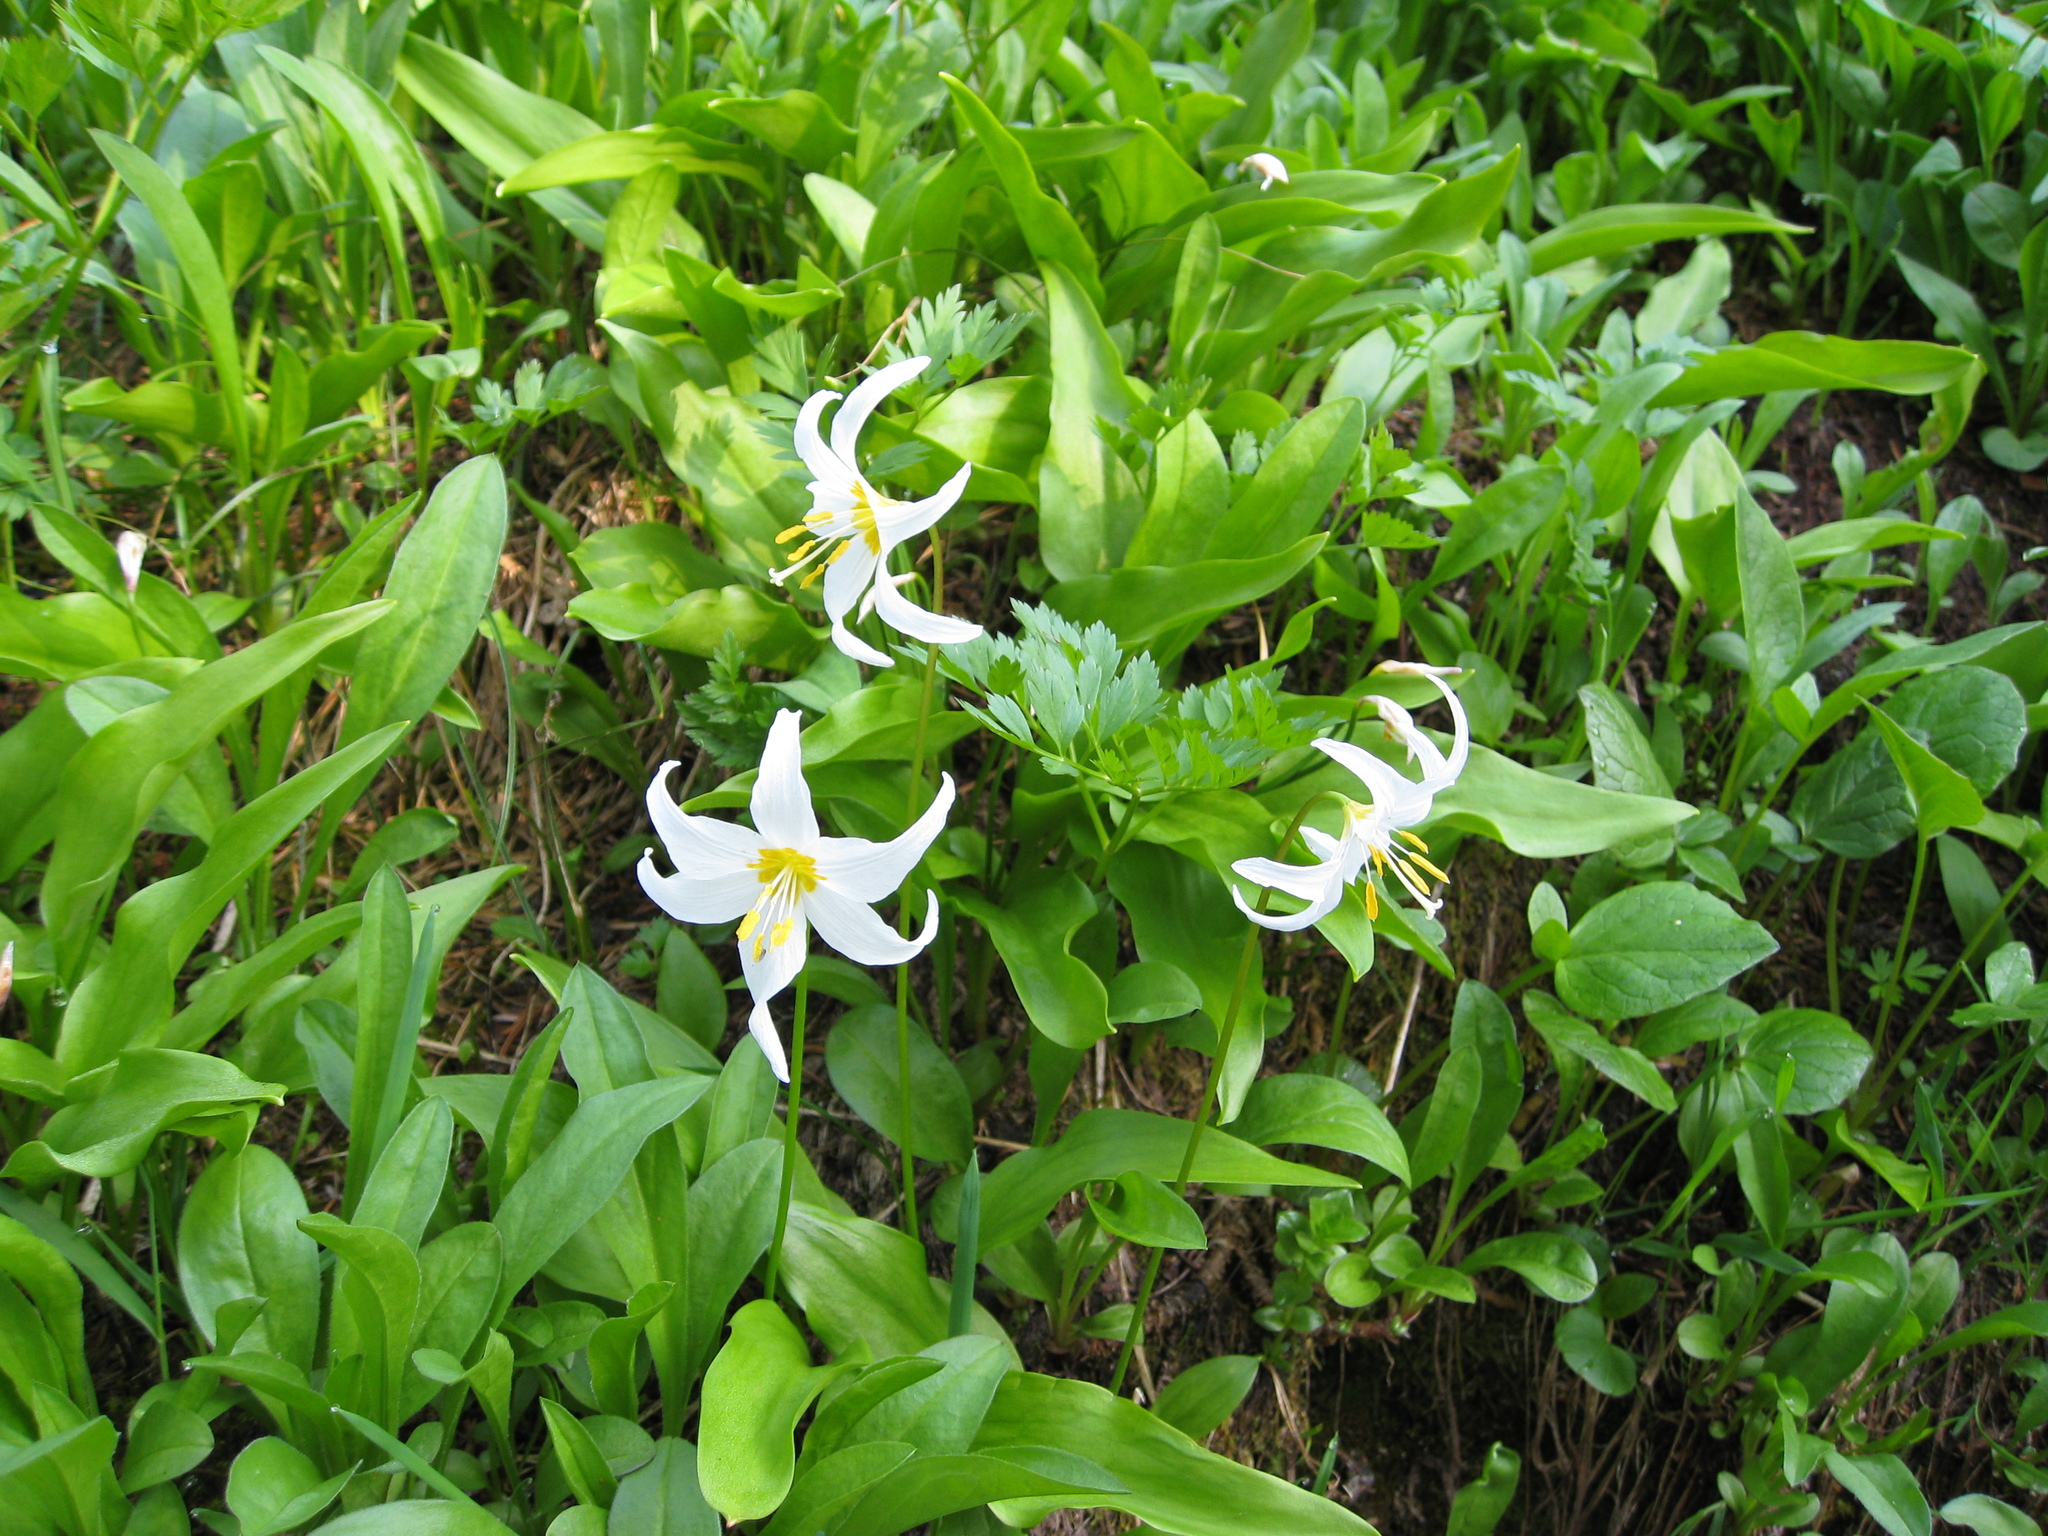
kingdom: Plantae
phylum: Tracheophyta
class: Liliopsida
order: Liliales
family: Liliaceae
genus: Erythronium
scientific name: Erythronium montanum
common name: Avalanche lily
